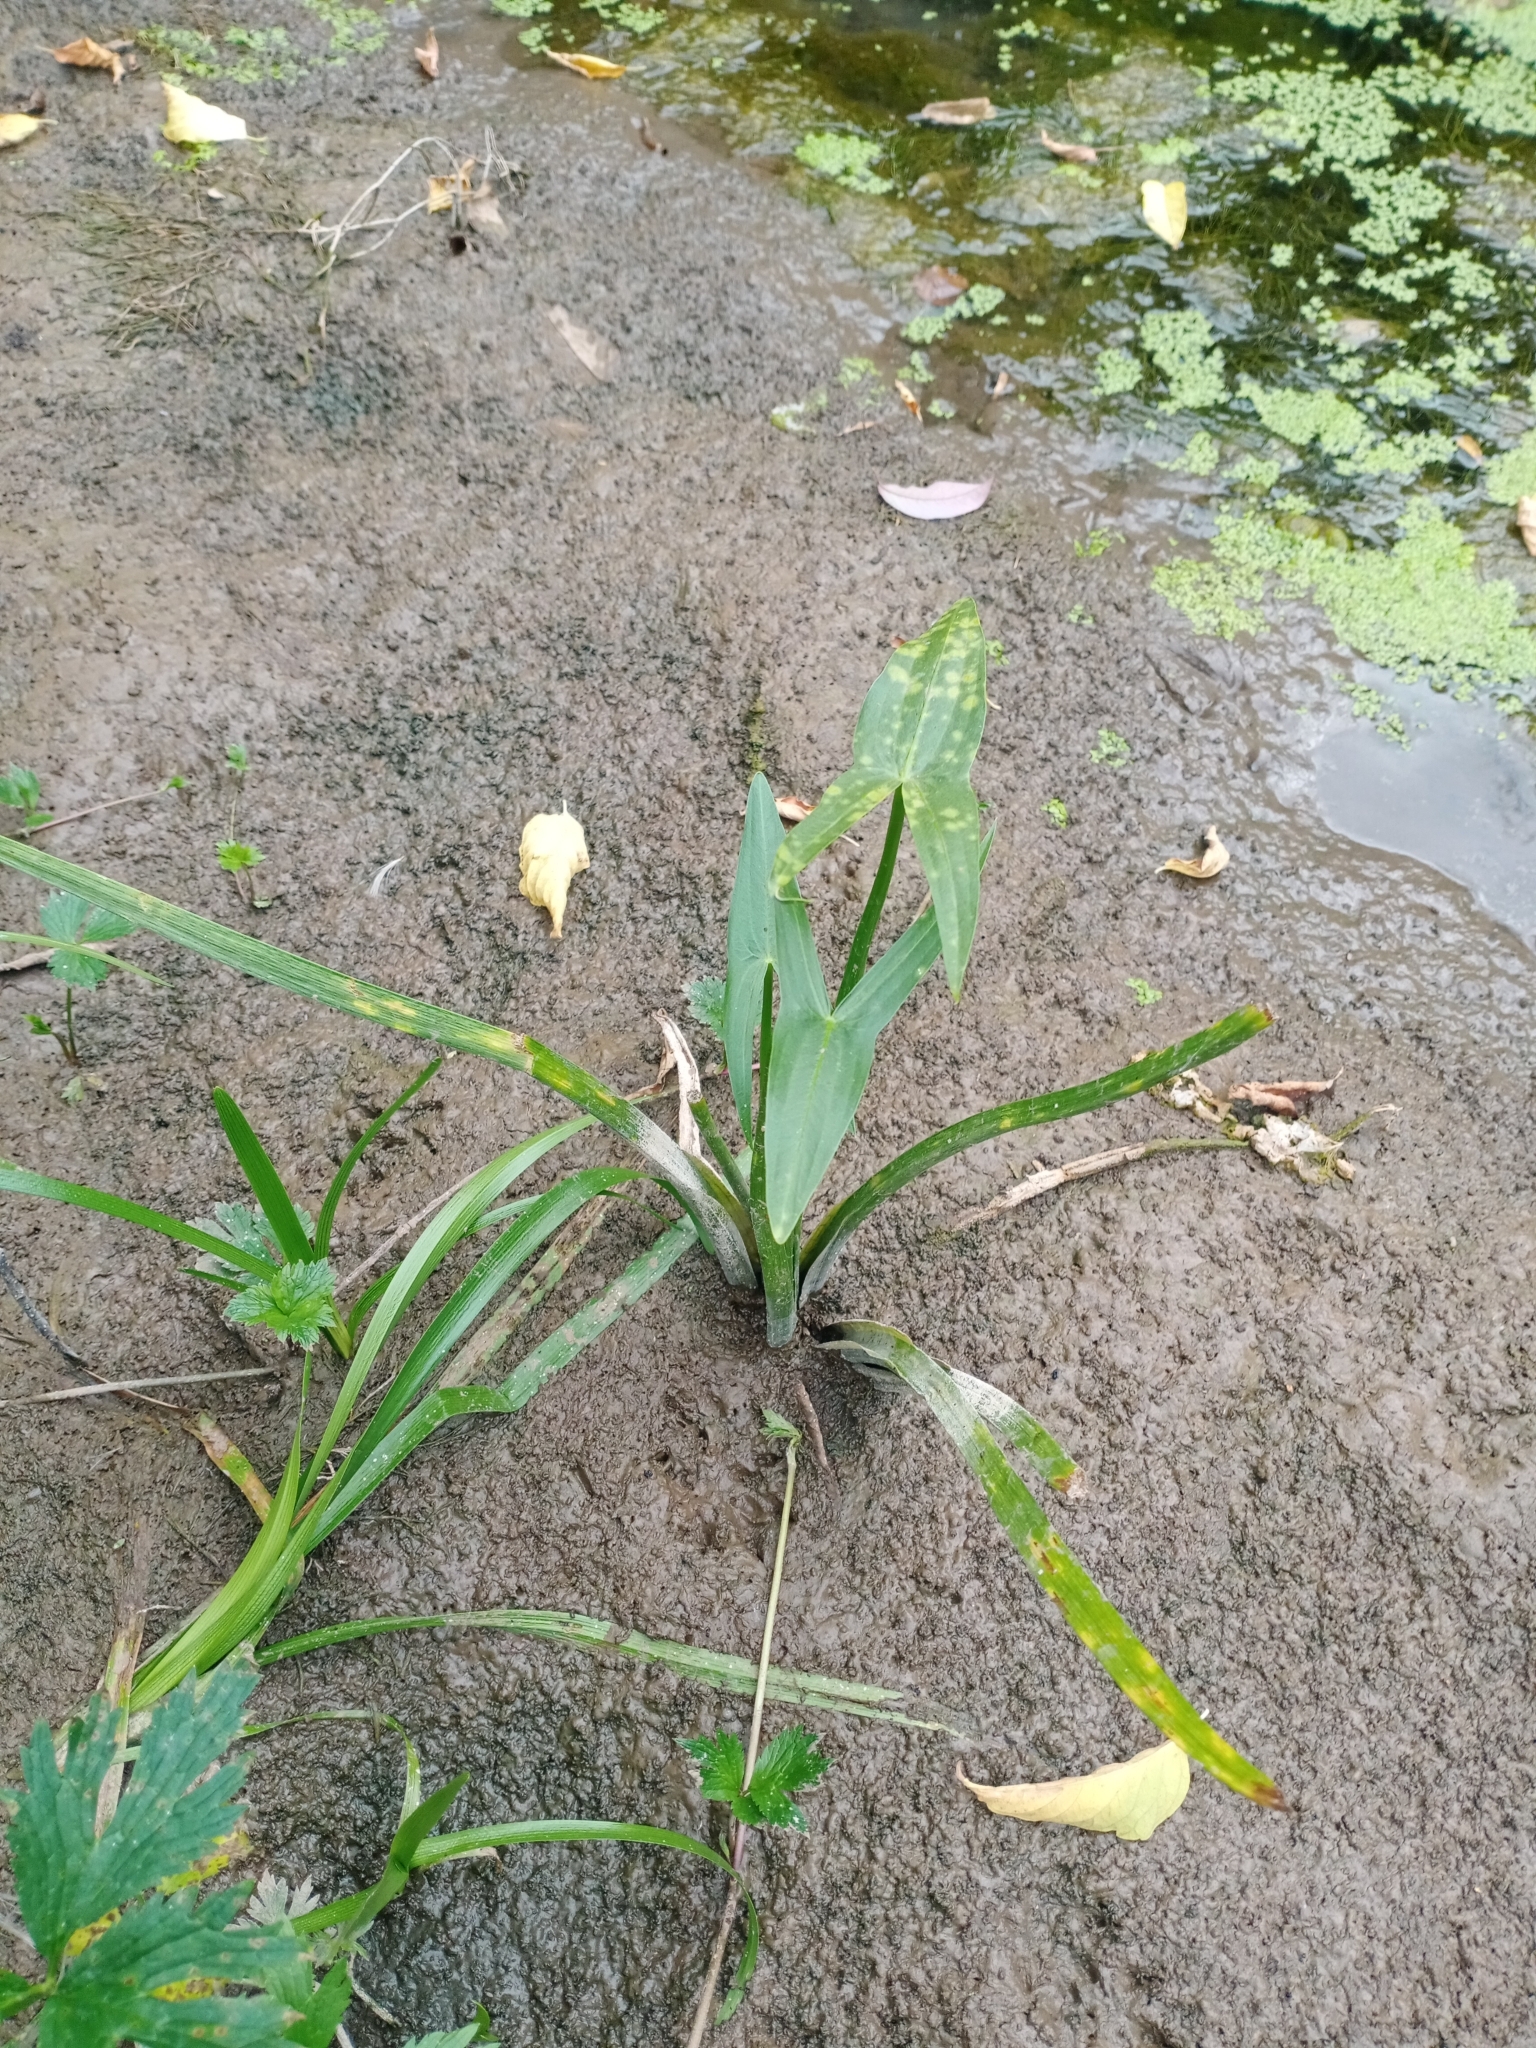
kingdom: Plantae
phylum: Tracheophyta
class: Liliopsida
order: Alismatales
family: Alismataceae
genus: Sagittaria
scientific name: Sagittaria sagittifolia
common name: Arrowhead
